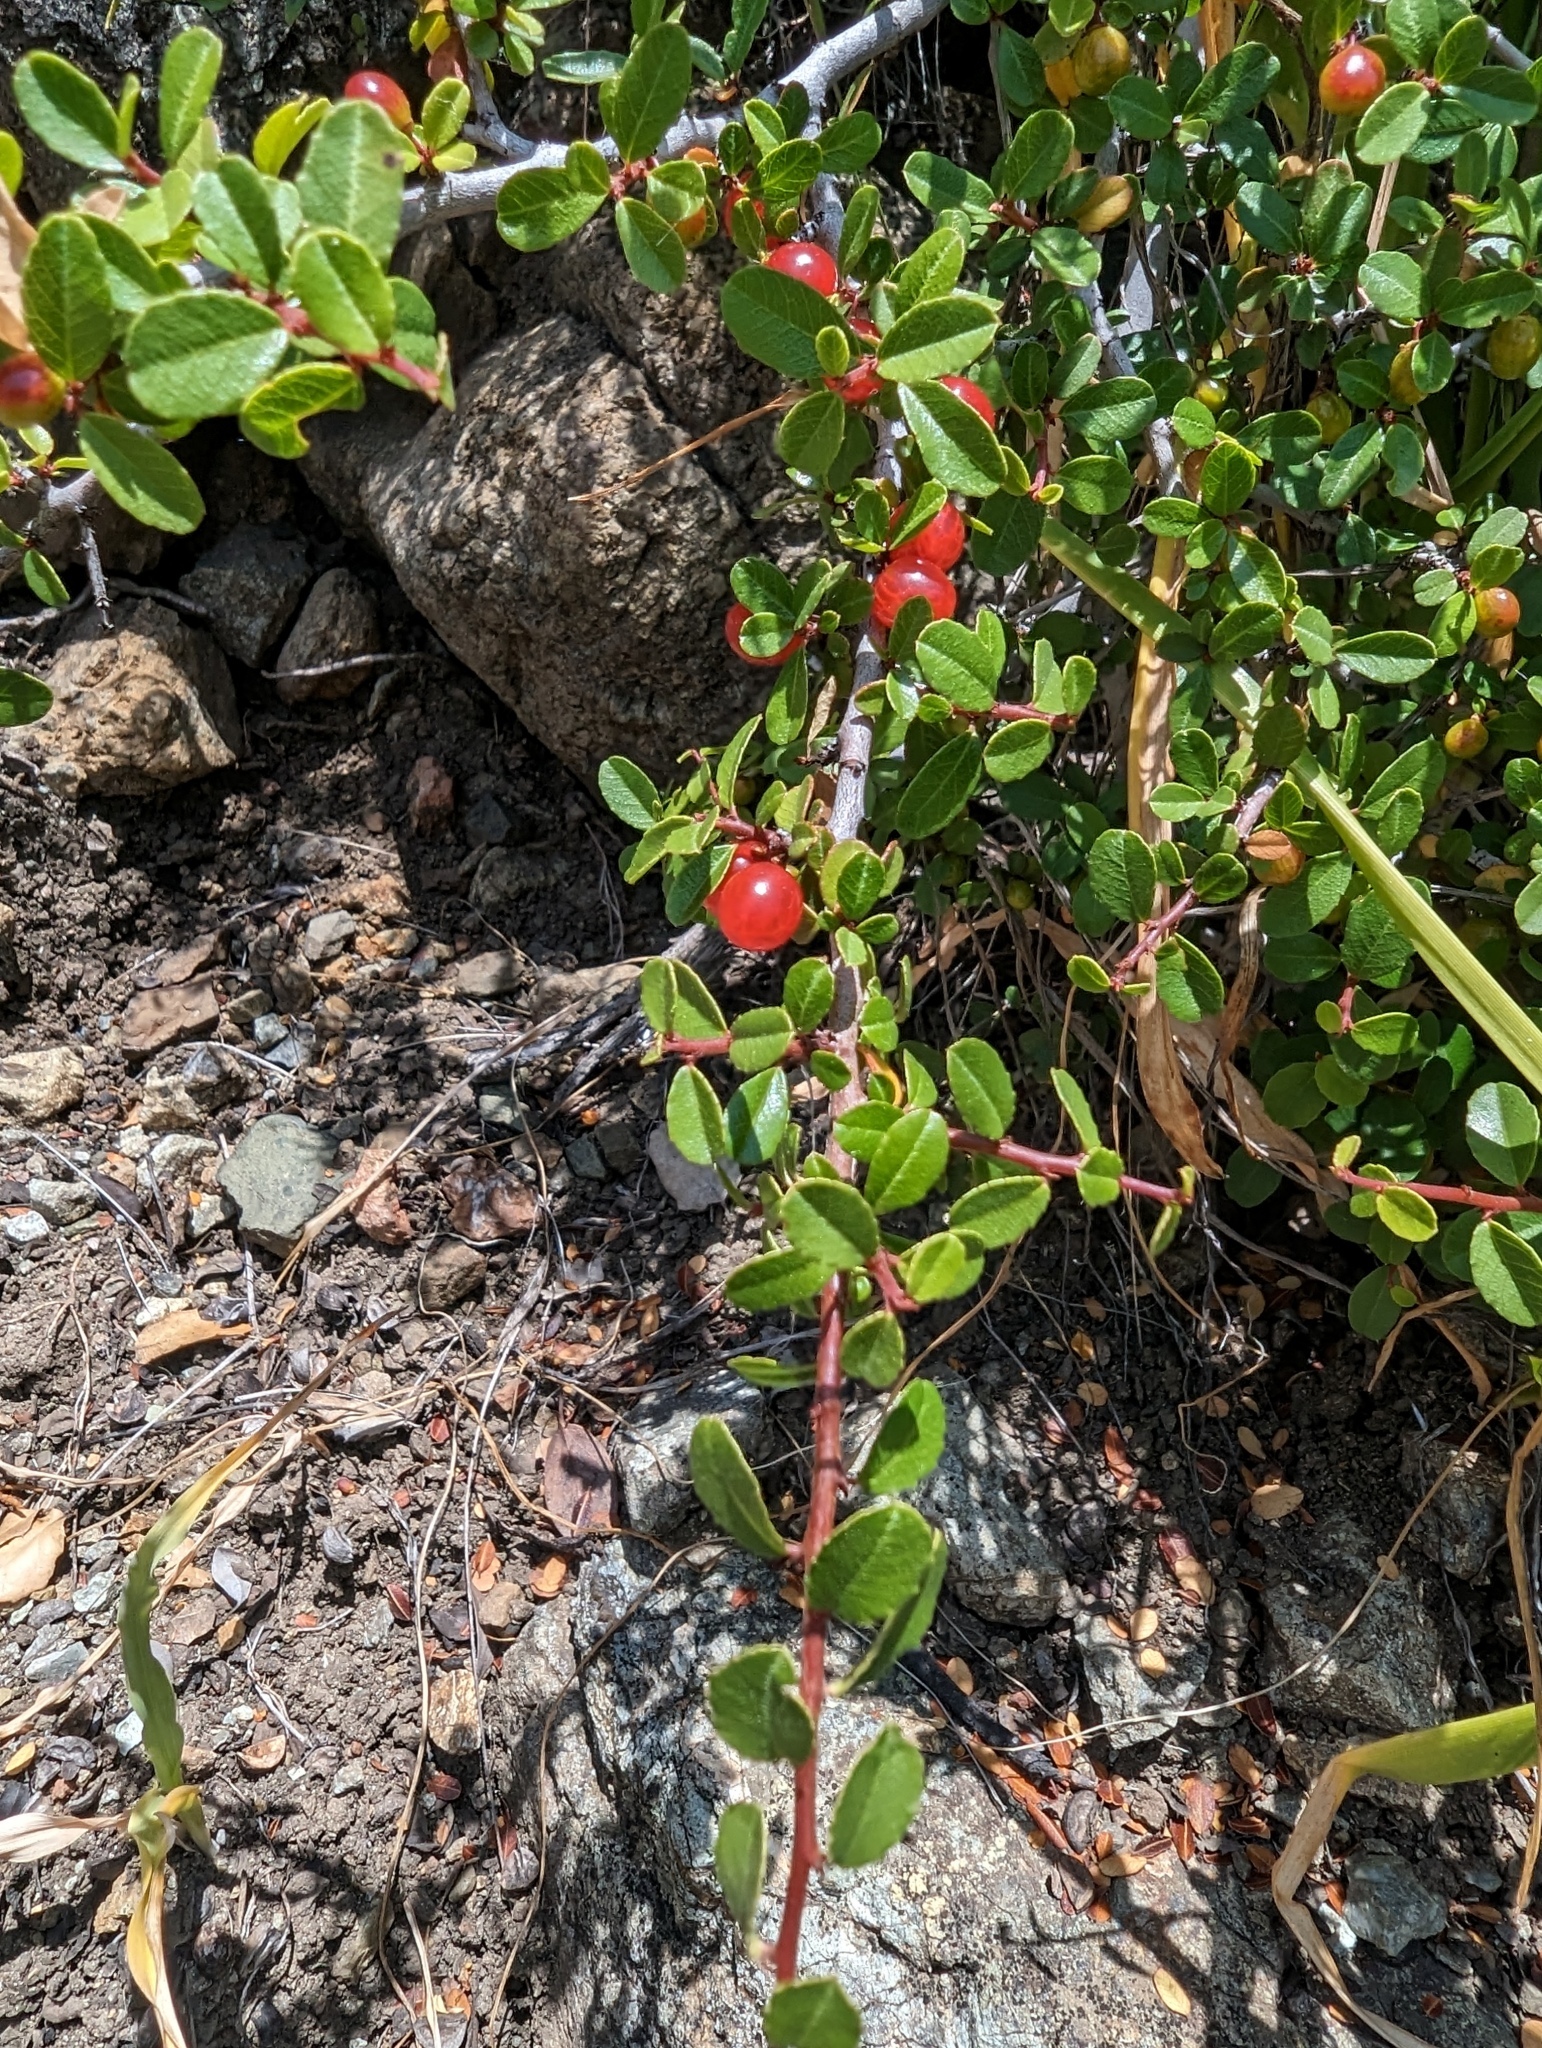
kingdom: Plantae
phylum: Tracheophyta
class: Magnoliopsida
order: Rosales
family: Rhamnaceae
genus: Endotropis
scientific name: Endotropis crocea
